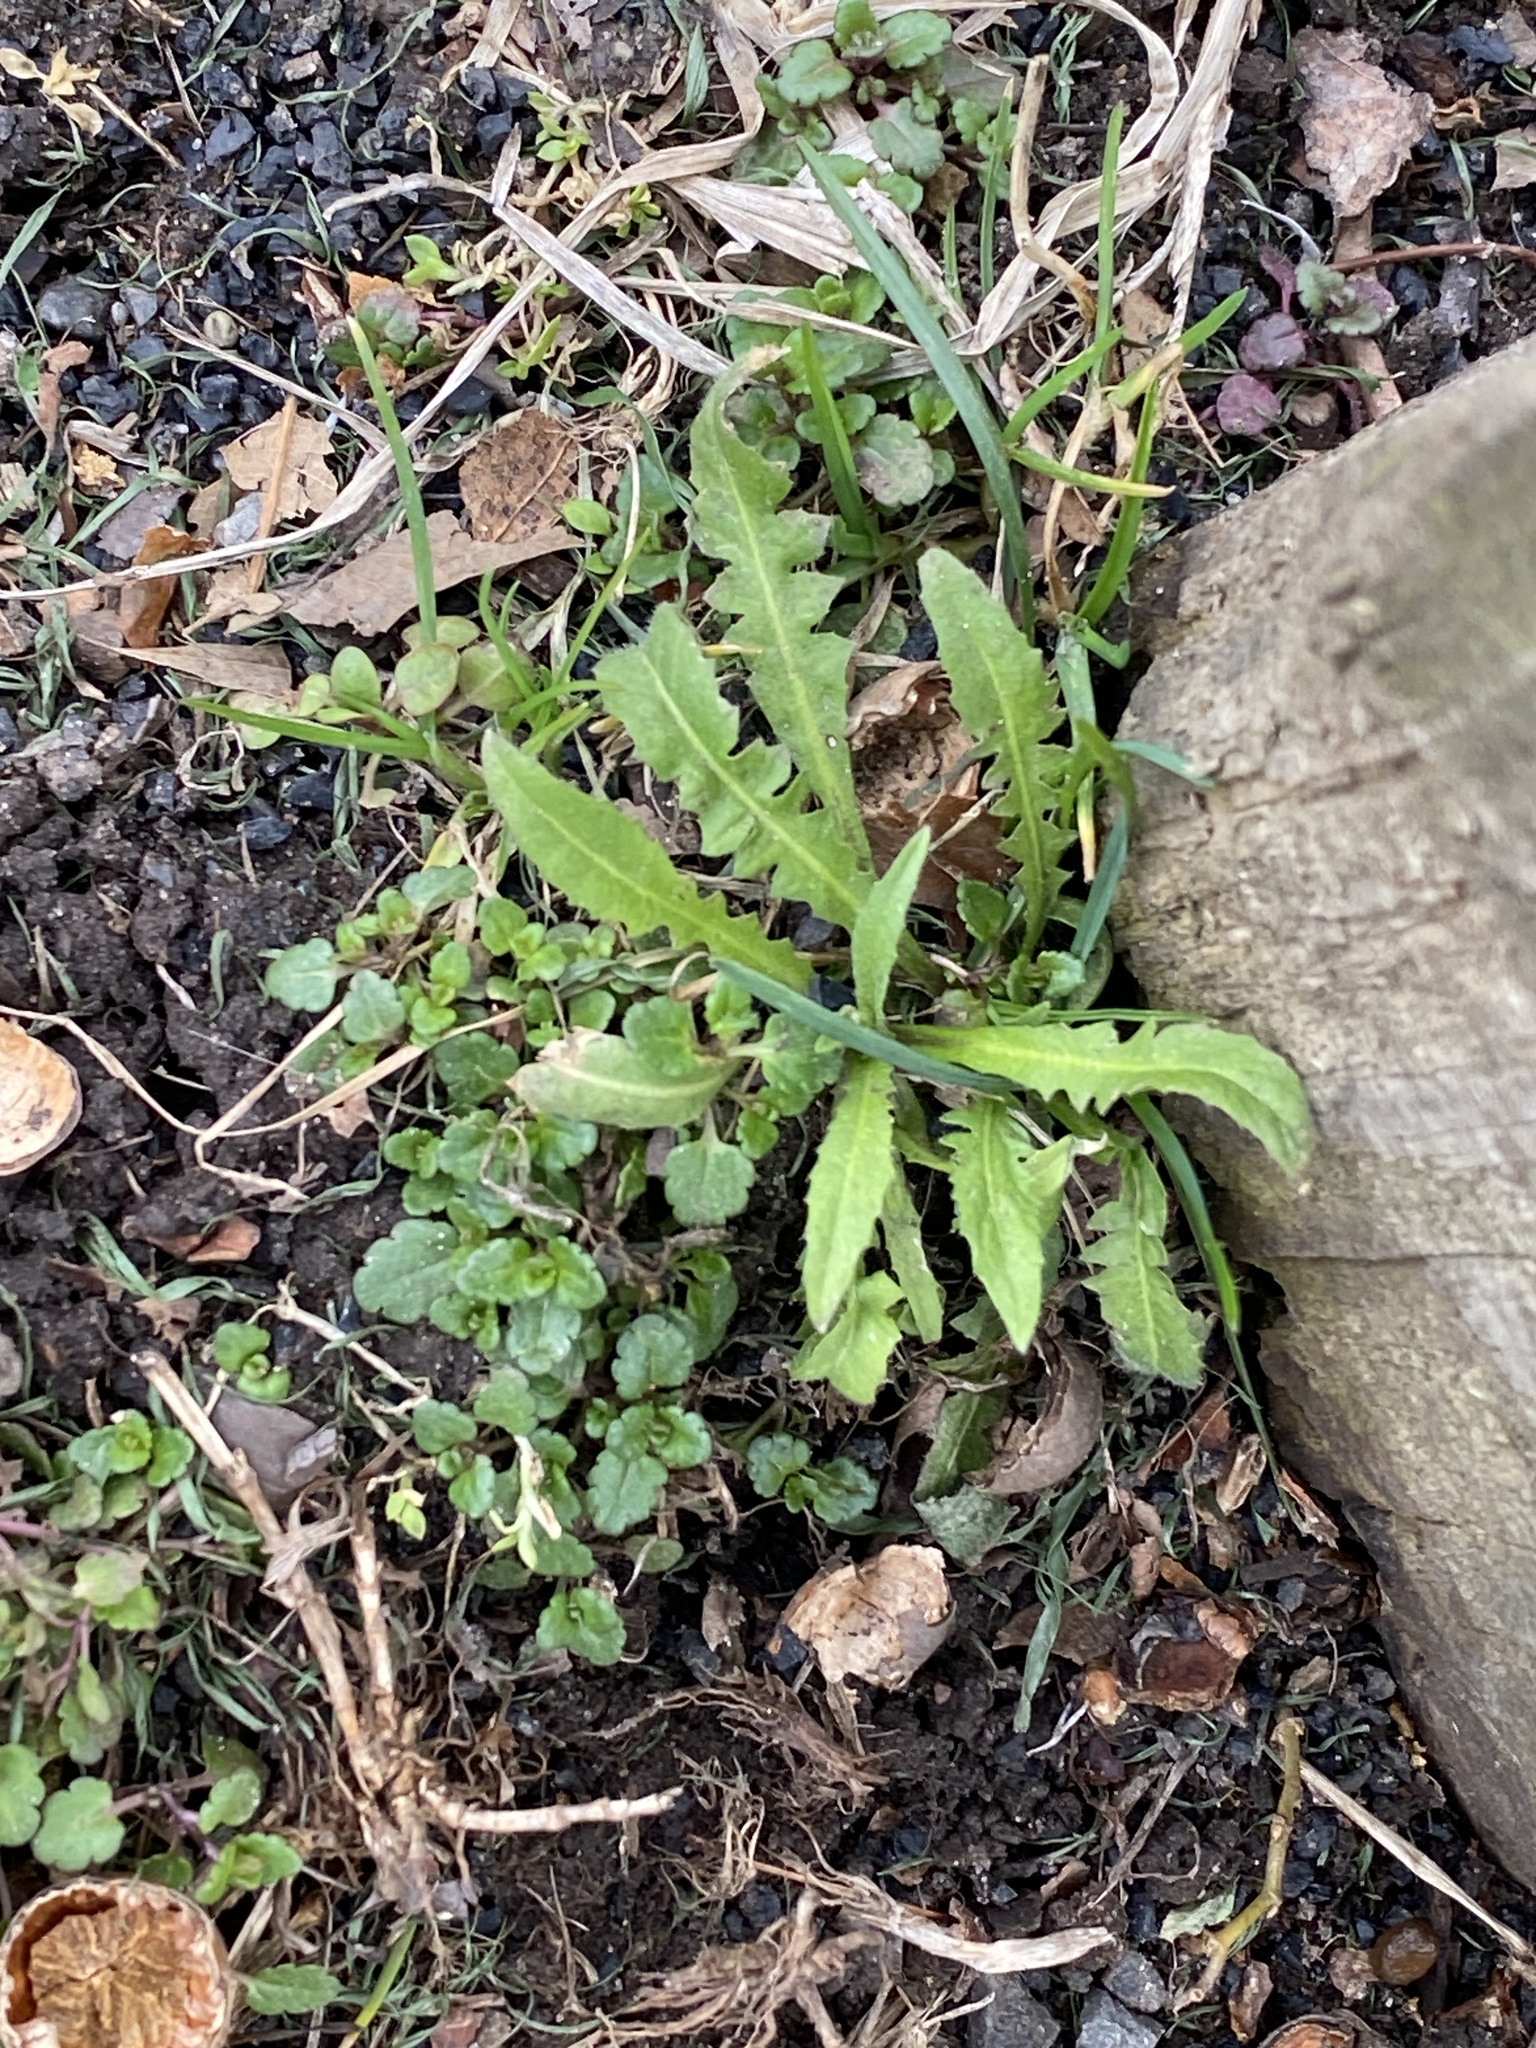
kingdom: Plantae
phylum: Tracheophyta
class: Magnoliopsida
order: Brassicales
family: Brassicaceae
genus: Capsella
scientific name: Capsella bursa-pastoris
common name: Shepherd's purse
